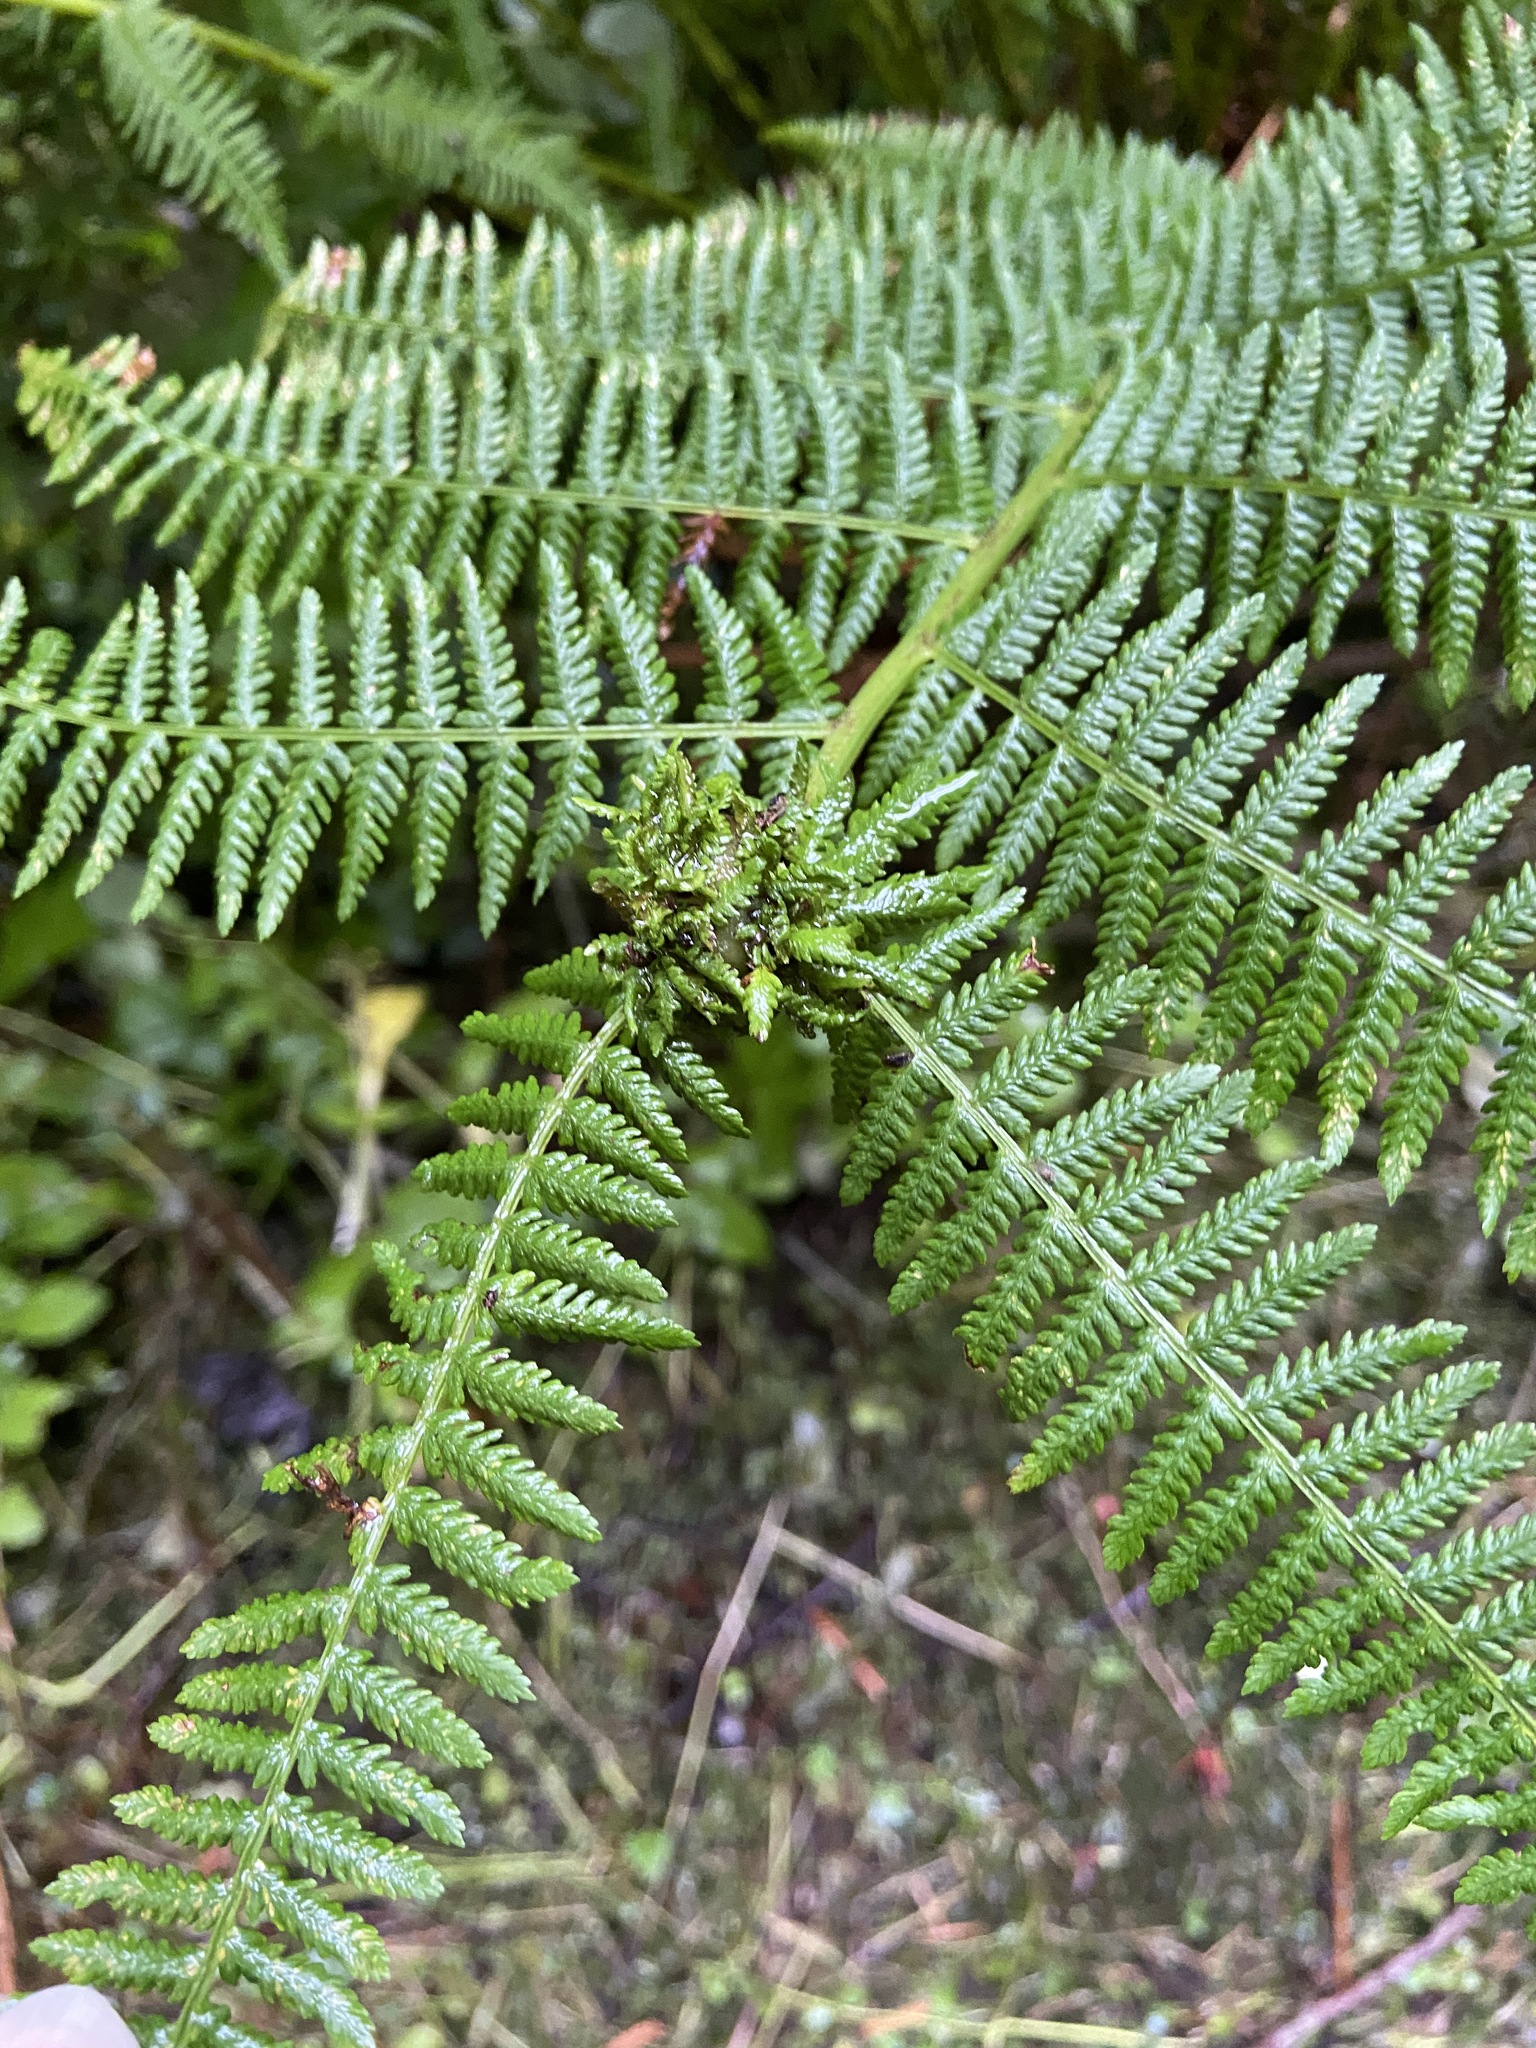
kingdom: Animalia
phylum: Arthropoda
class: Insecta
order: Diptera
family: Anthomyiidae
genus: Chirosia
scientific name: Chirosia betuleti
